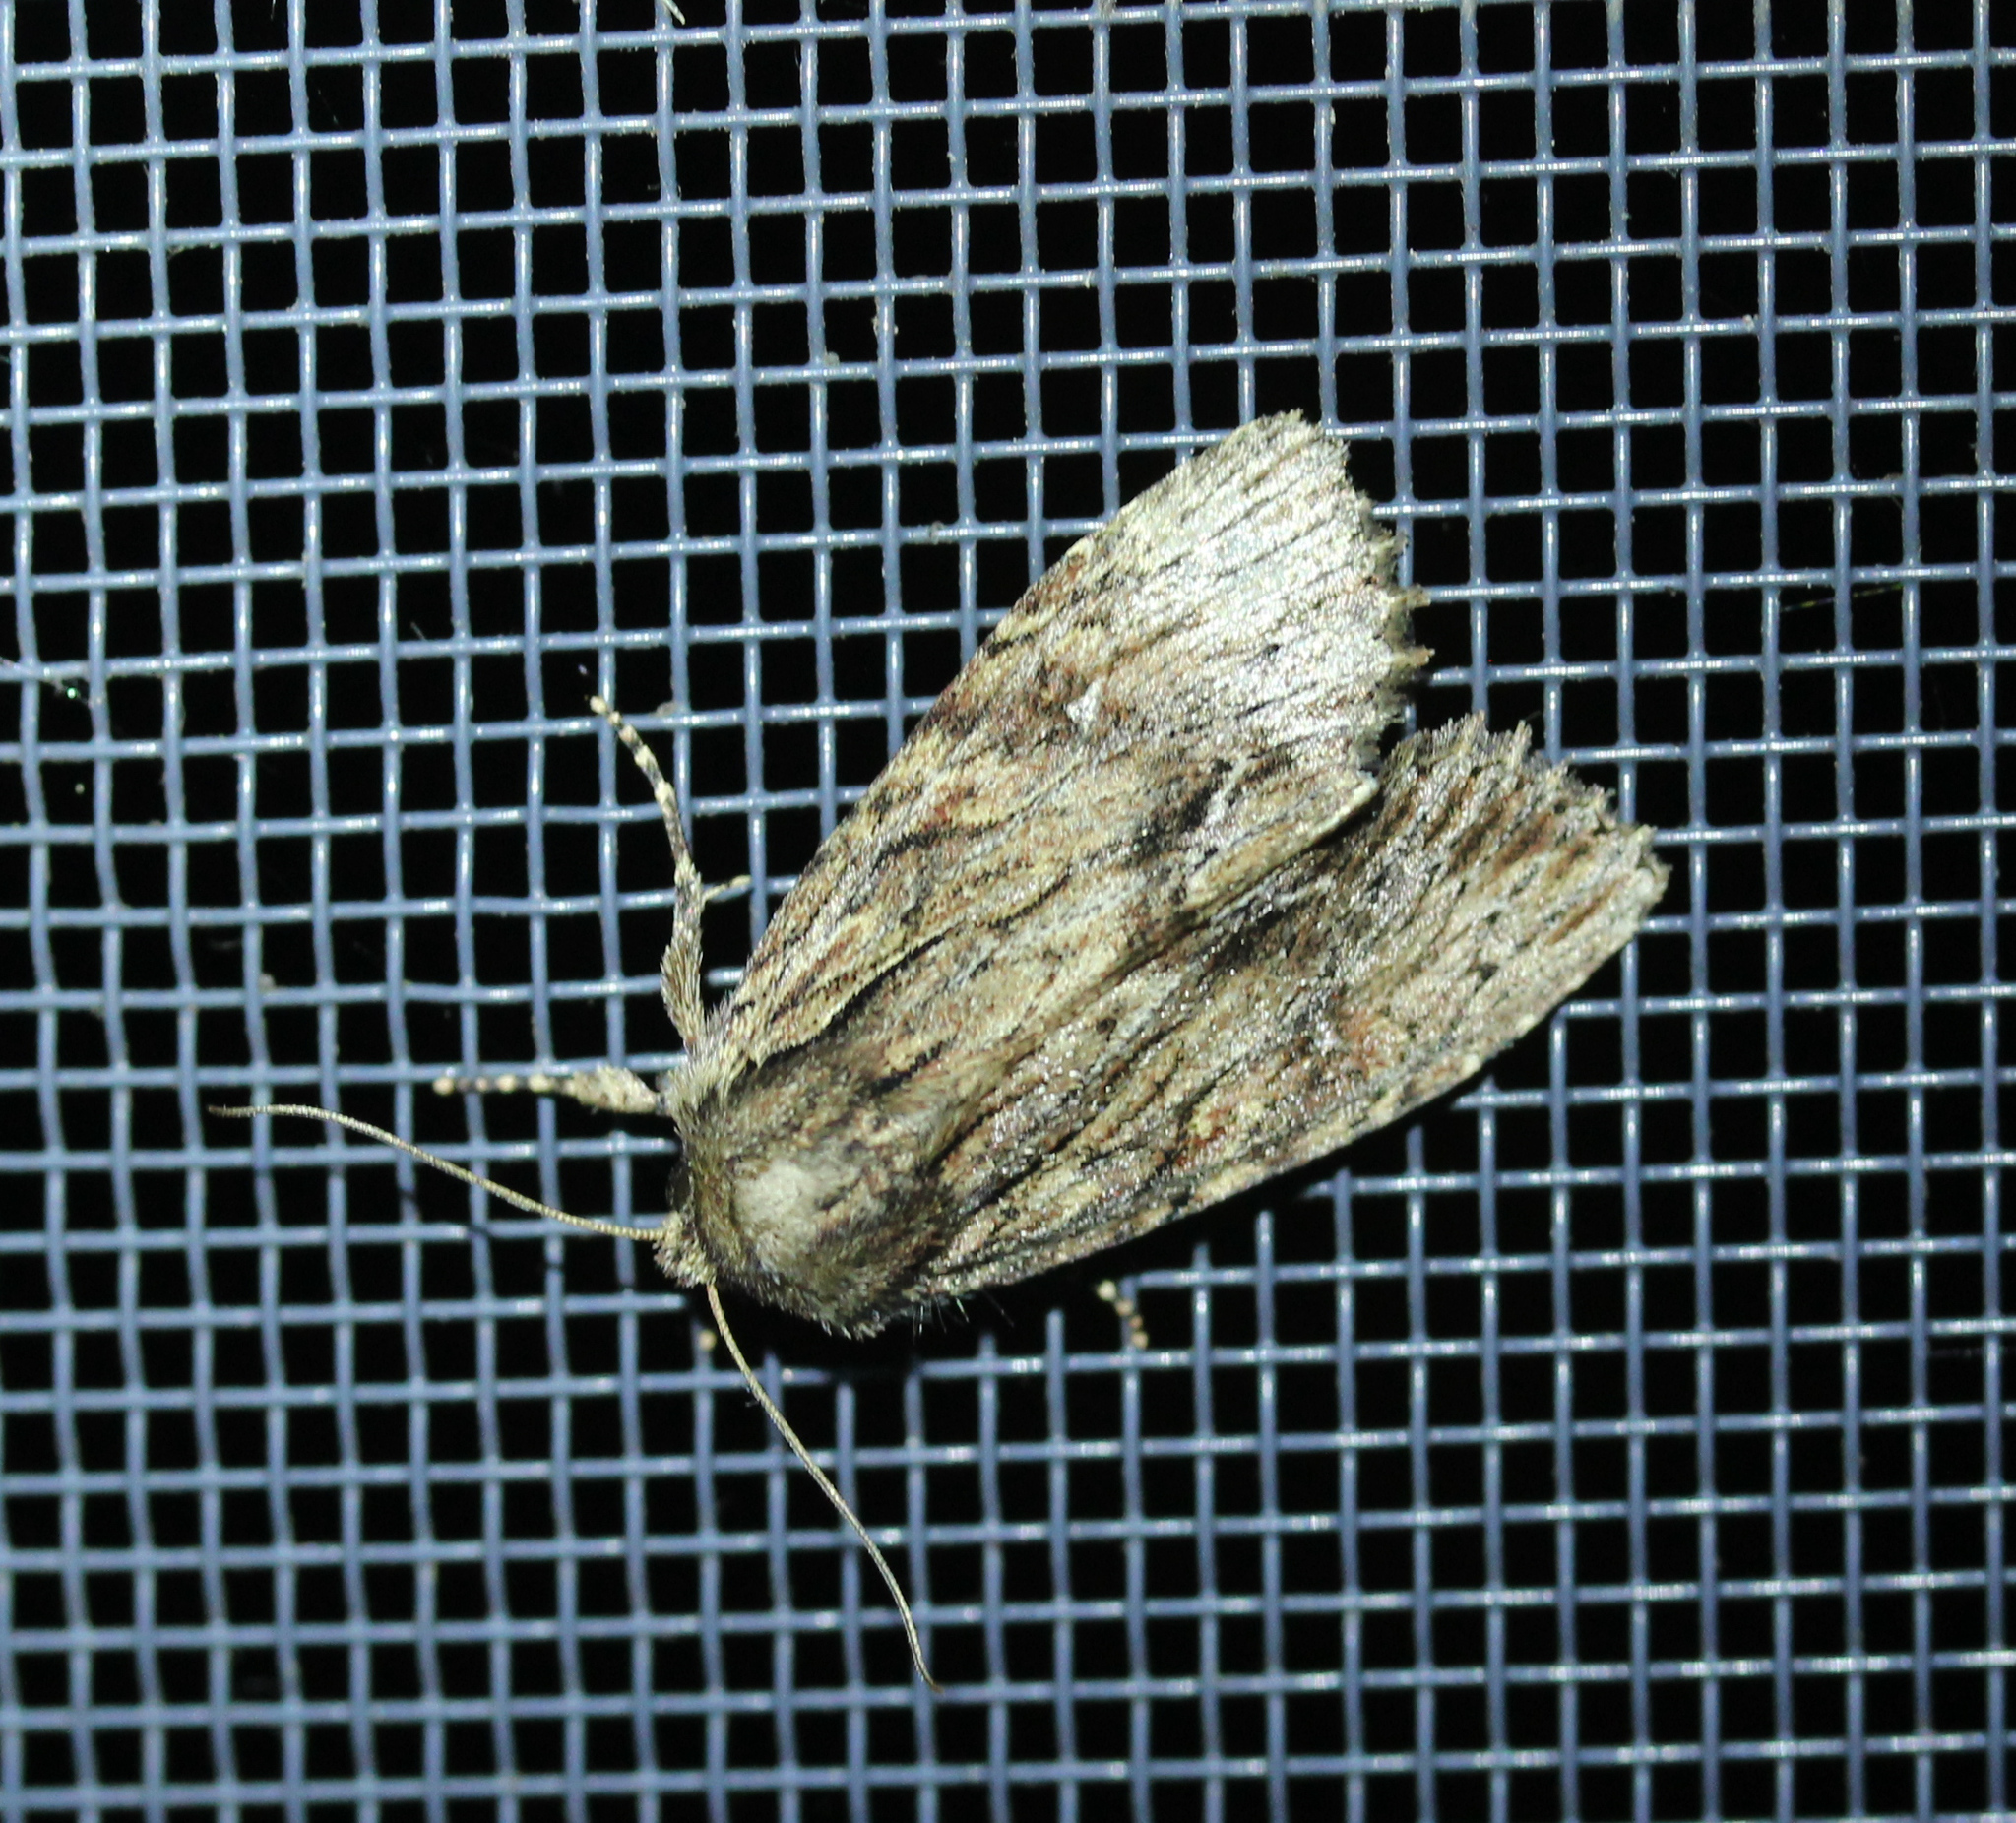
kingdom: Animalia
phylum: Arthropoda
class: Insecta
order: Lepidoptera
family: Noctuidae
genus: Achatia
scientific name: Achatia confusa
